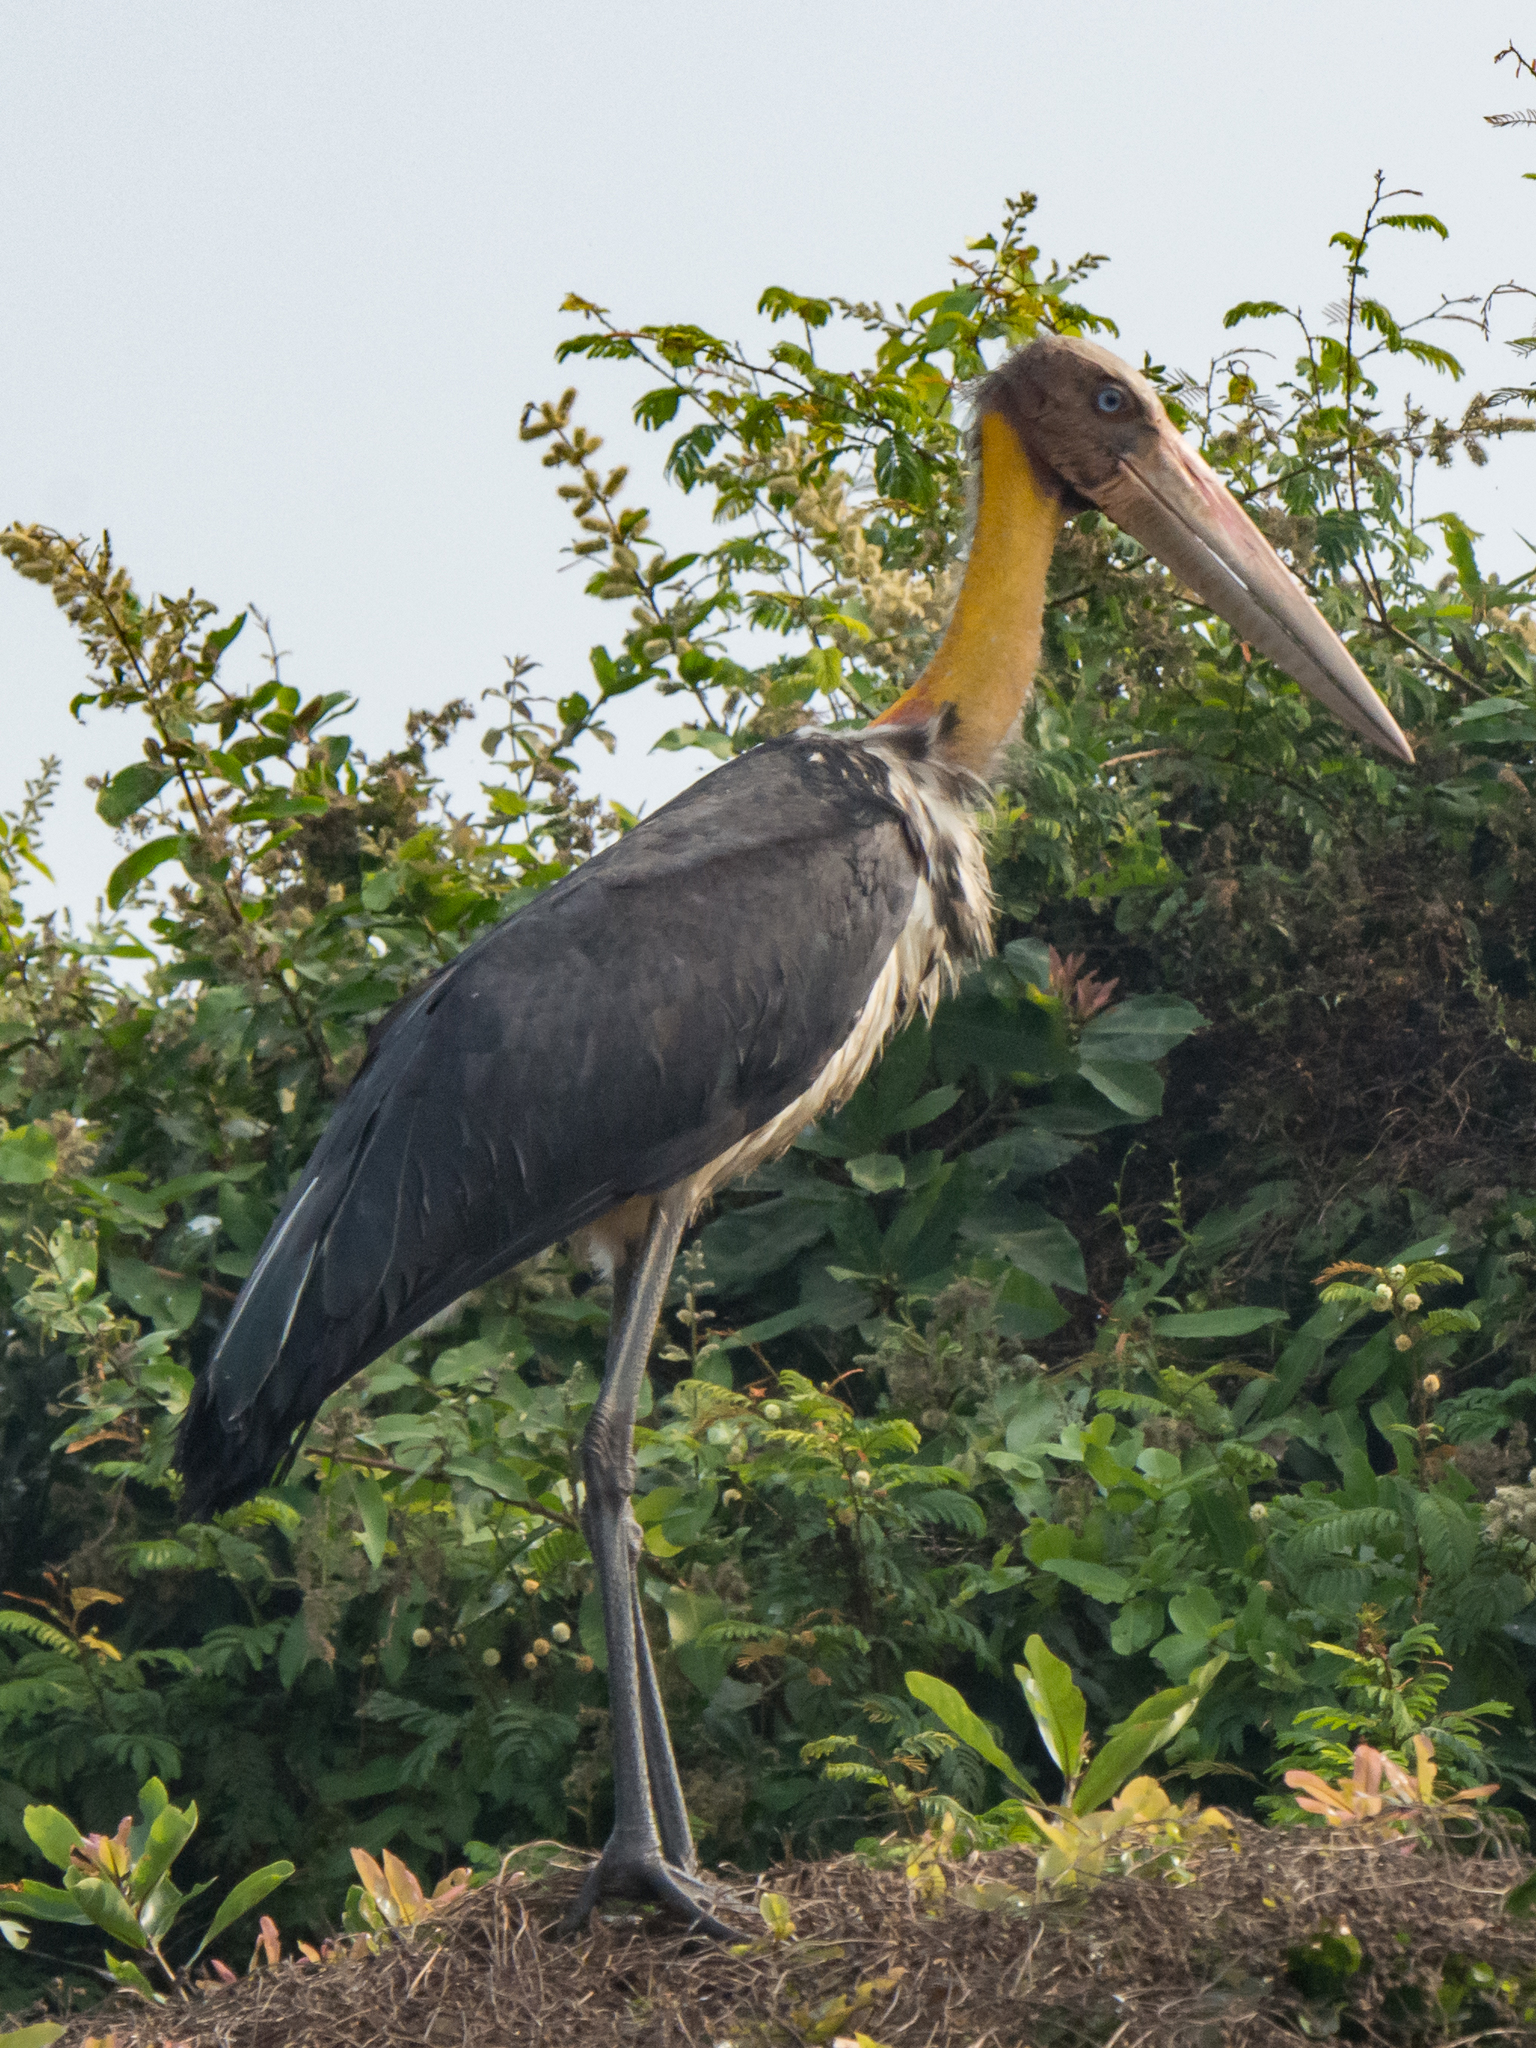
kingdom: Animalia
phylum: Chordata
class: Aves
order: Ciconiiformes
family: Ciconiidae
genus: Leptoptilos
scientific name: Leptoptilos javanicus
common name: Lesser adjutant
